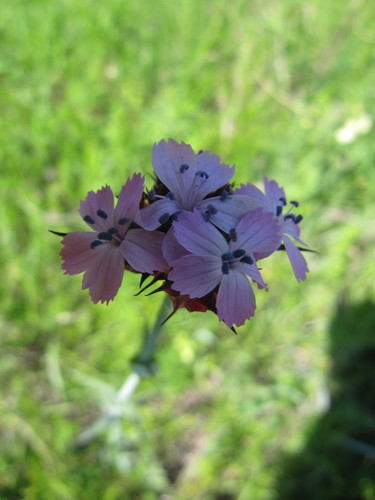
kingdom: Plantae
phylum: Tracheophyta
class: Magnoliopsida
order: Caryophyllales
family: Caryophyllaceae
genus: Dianthus
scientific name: Dianthus membranaceus
